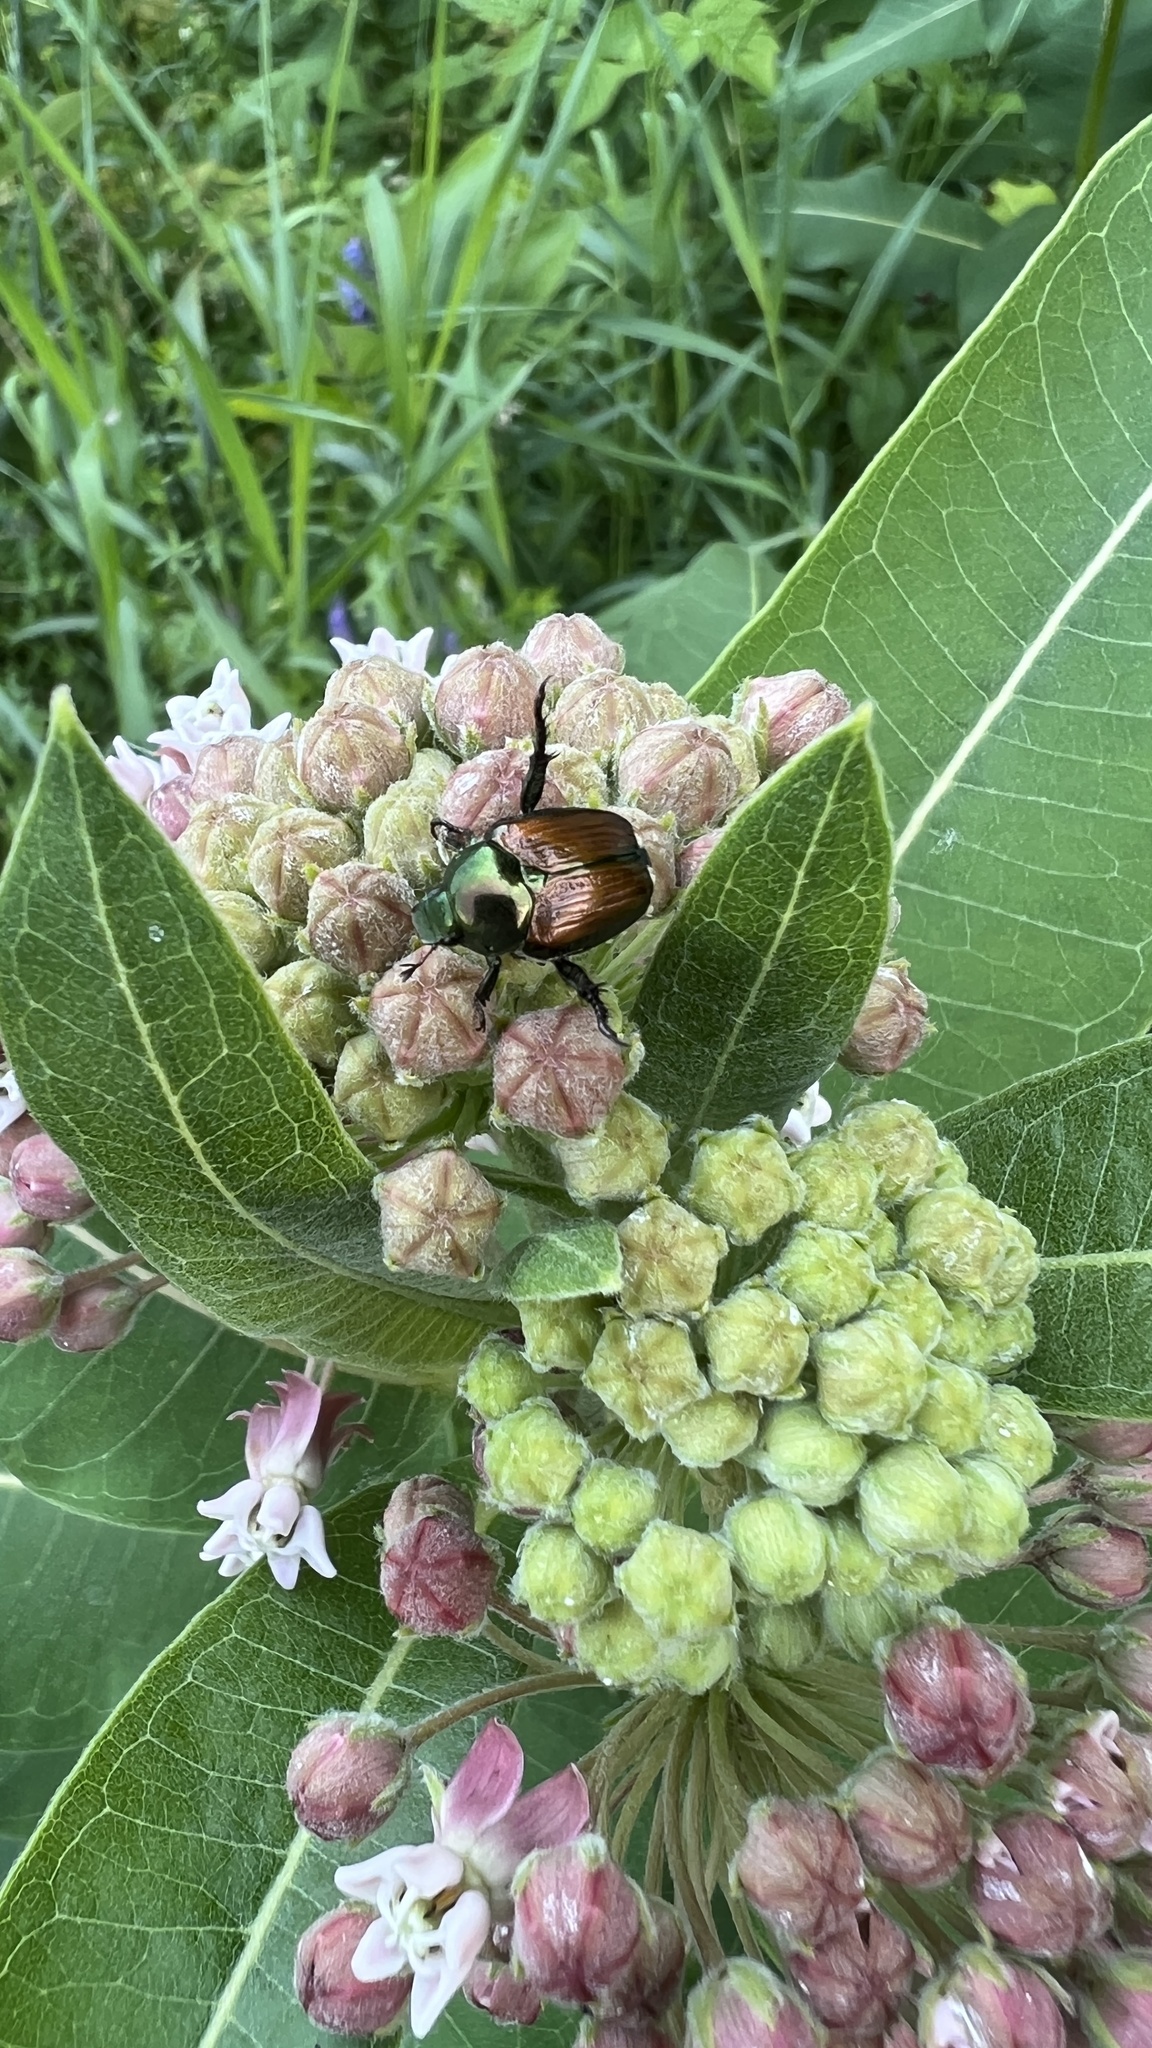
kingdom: Animalia
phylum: Arthropoda
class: Insecta
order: Coleoptera
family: Scarabaeidae
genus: Popillia
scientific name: Popillia japonica
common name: Japanese beetle
